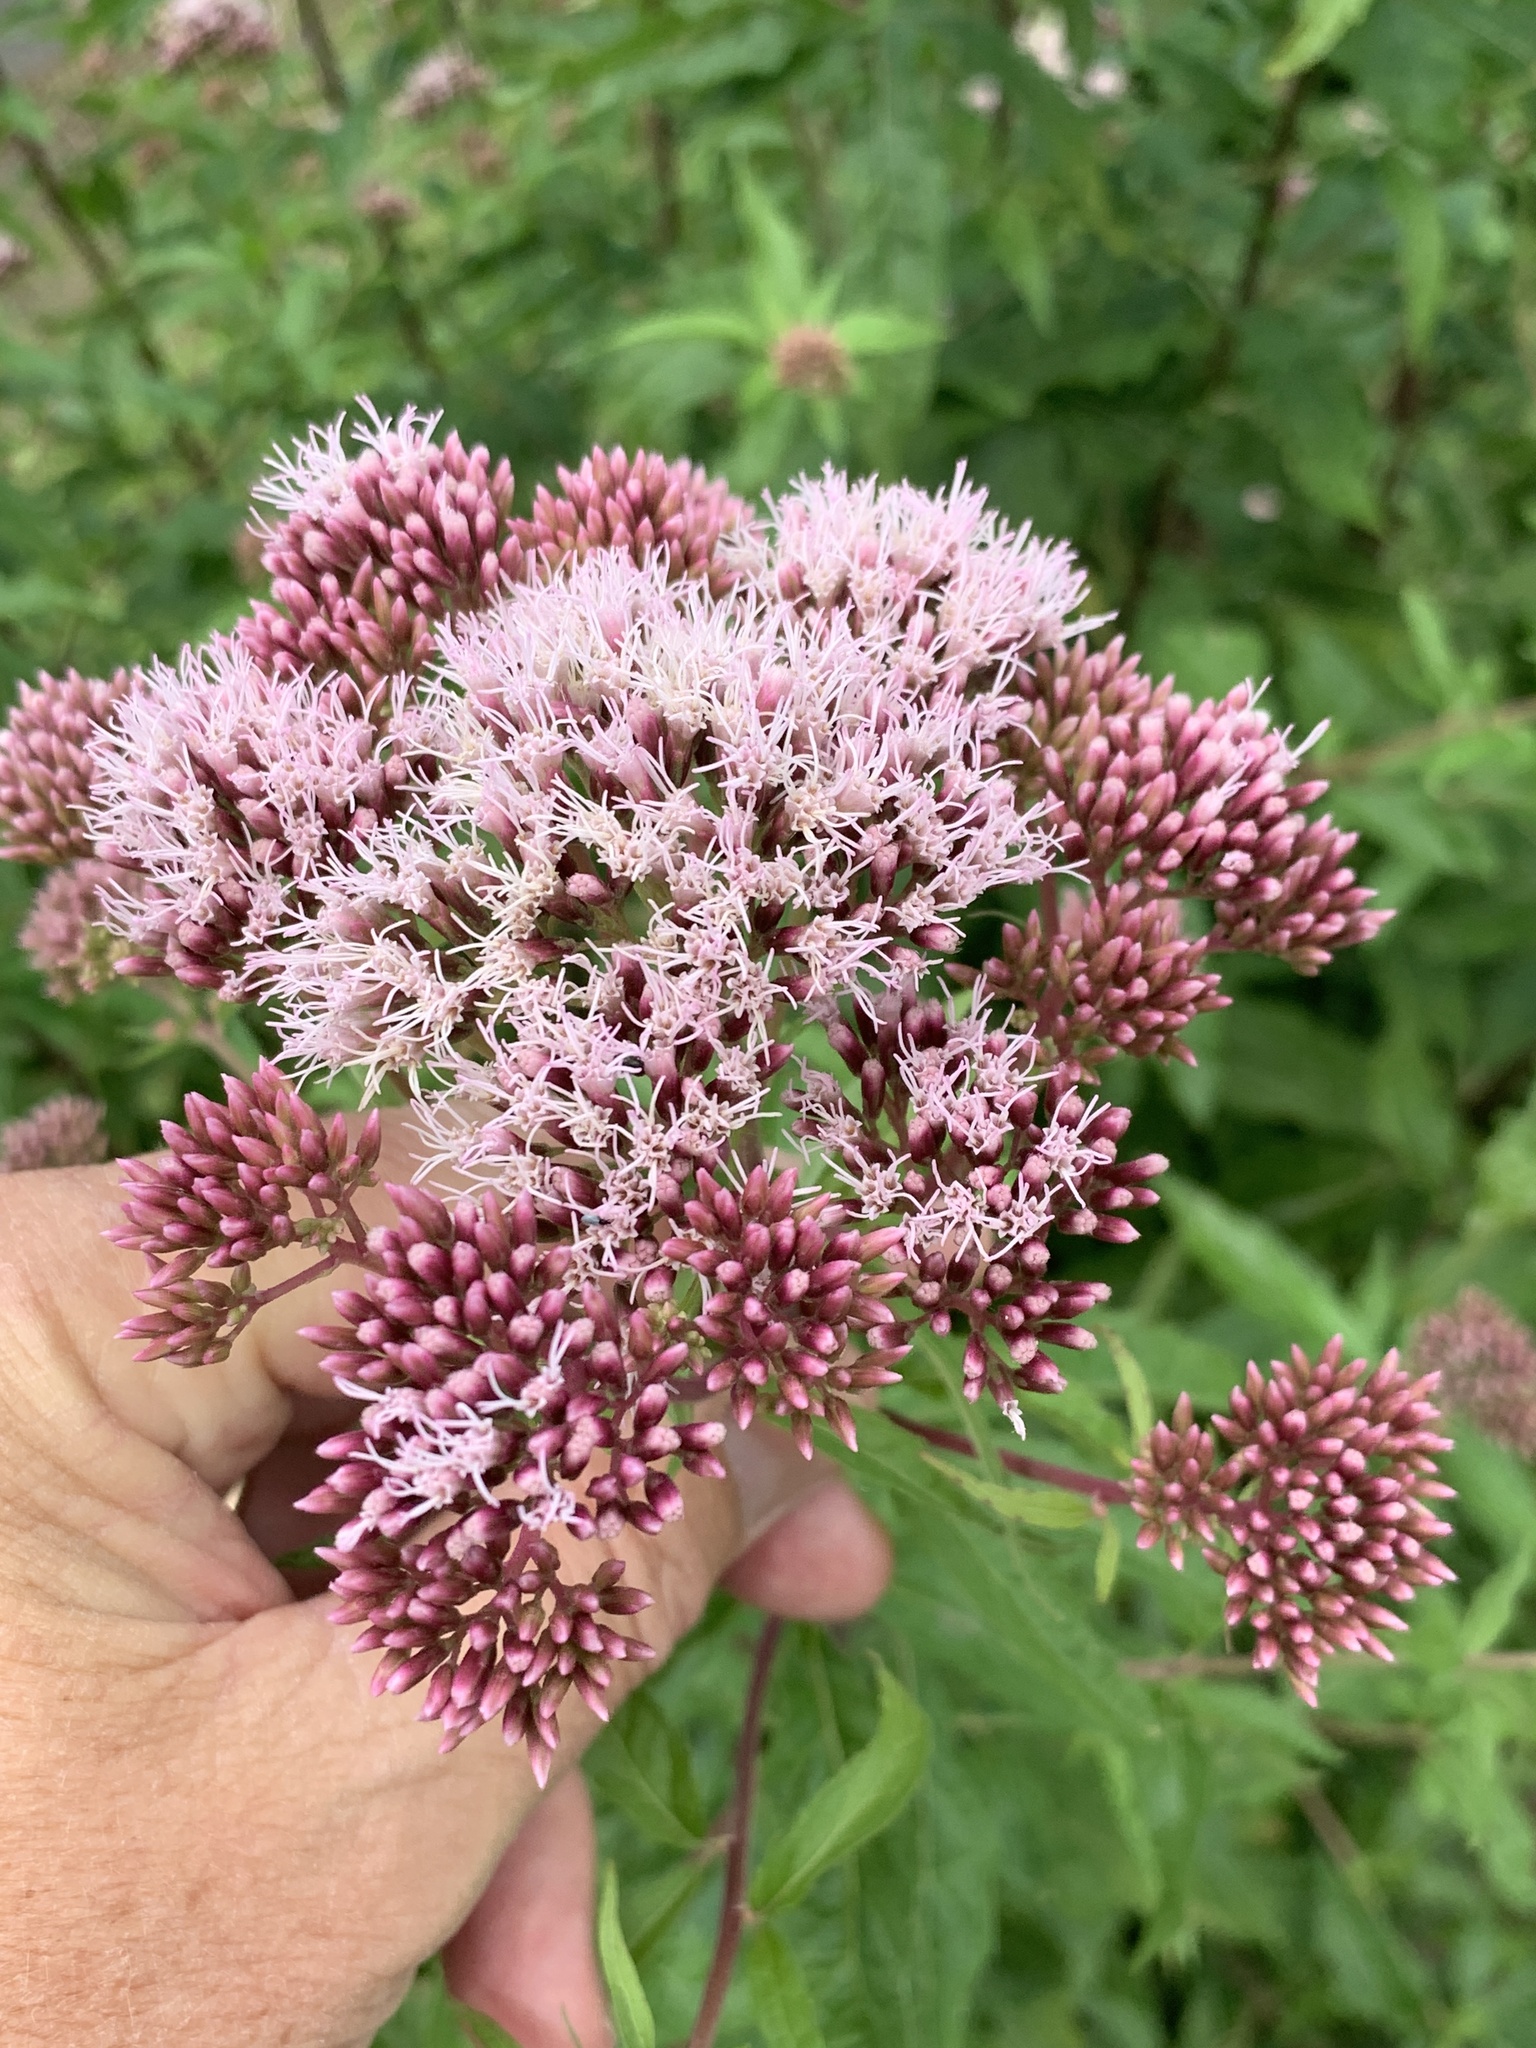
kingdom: Plantae
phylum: Tracheophyta
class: Magnoliopsida
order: Asterales
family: Asteraceae
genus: Eupatorium
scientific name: Eupatorium cannabinum
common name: Hemp-agrimony
